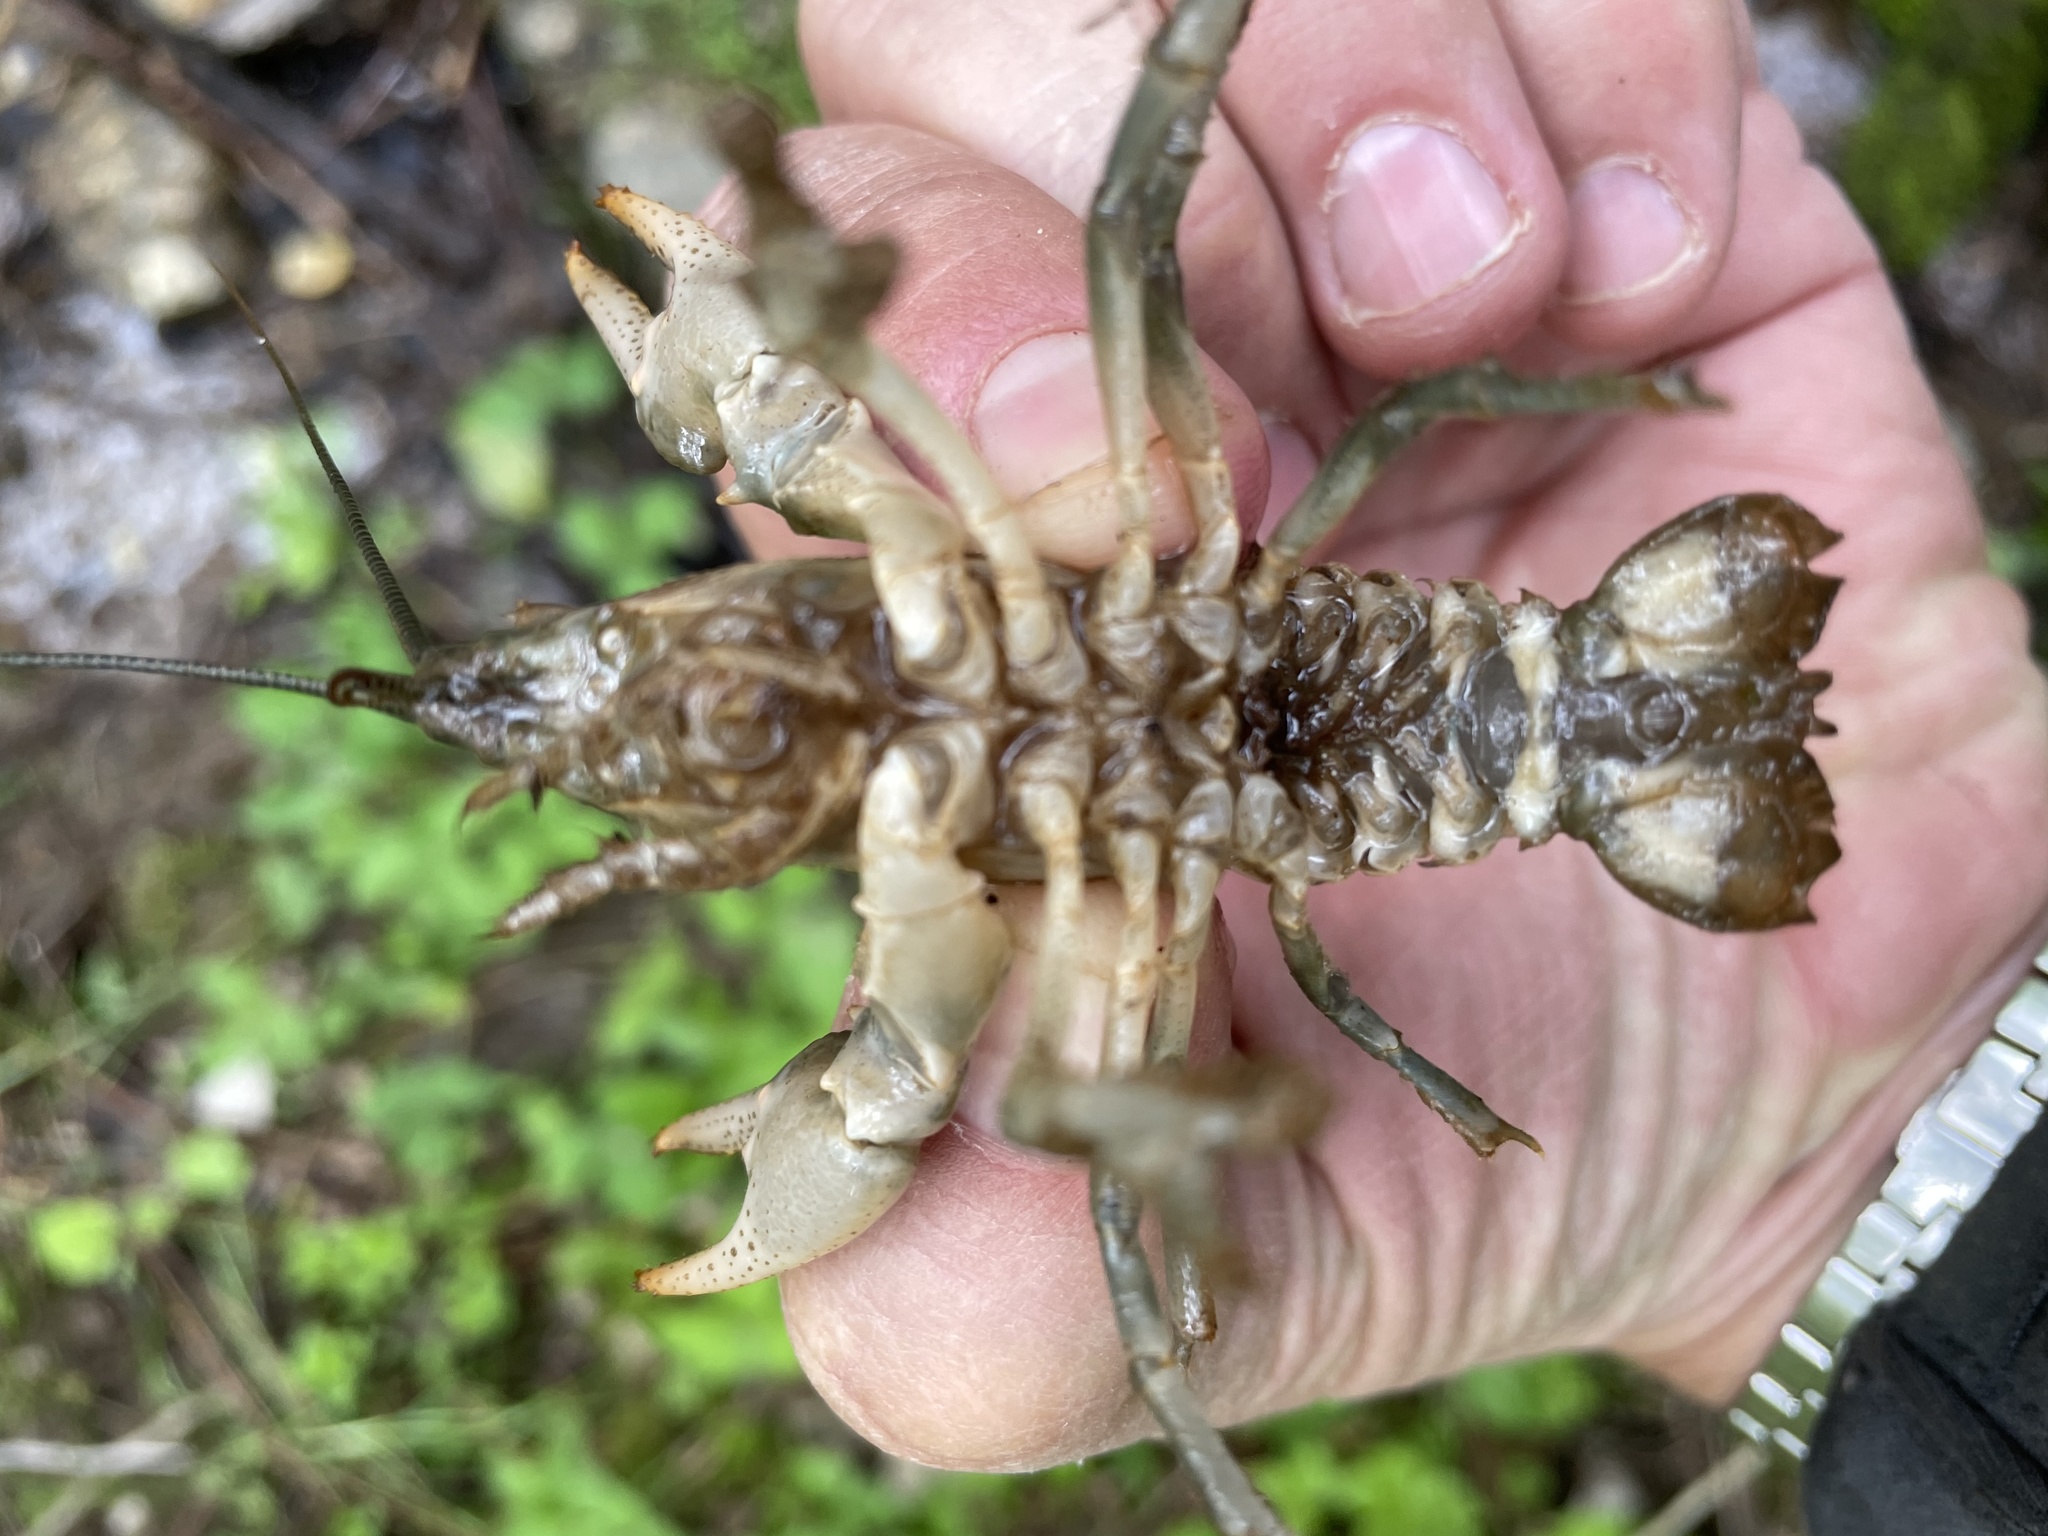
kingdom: Animalia
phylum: Arthropoda
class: Malacostraca
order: Decapoda
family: Cambaridae
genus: Cambarus
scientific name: Cambarus bartonii
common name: Appalachian brook crayfish
